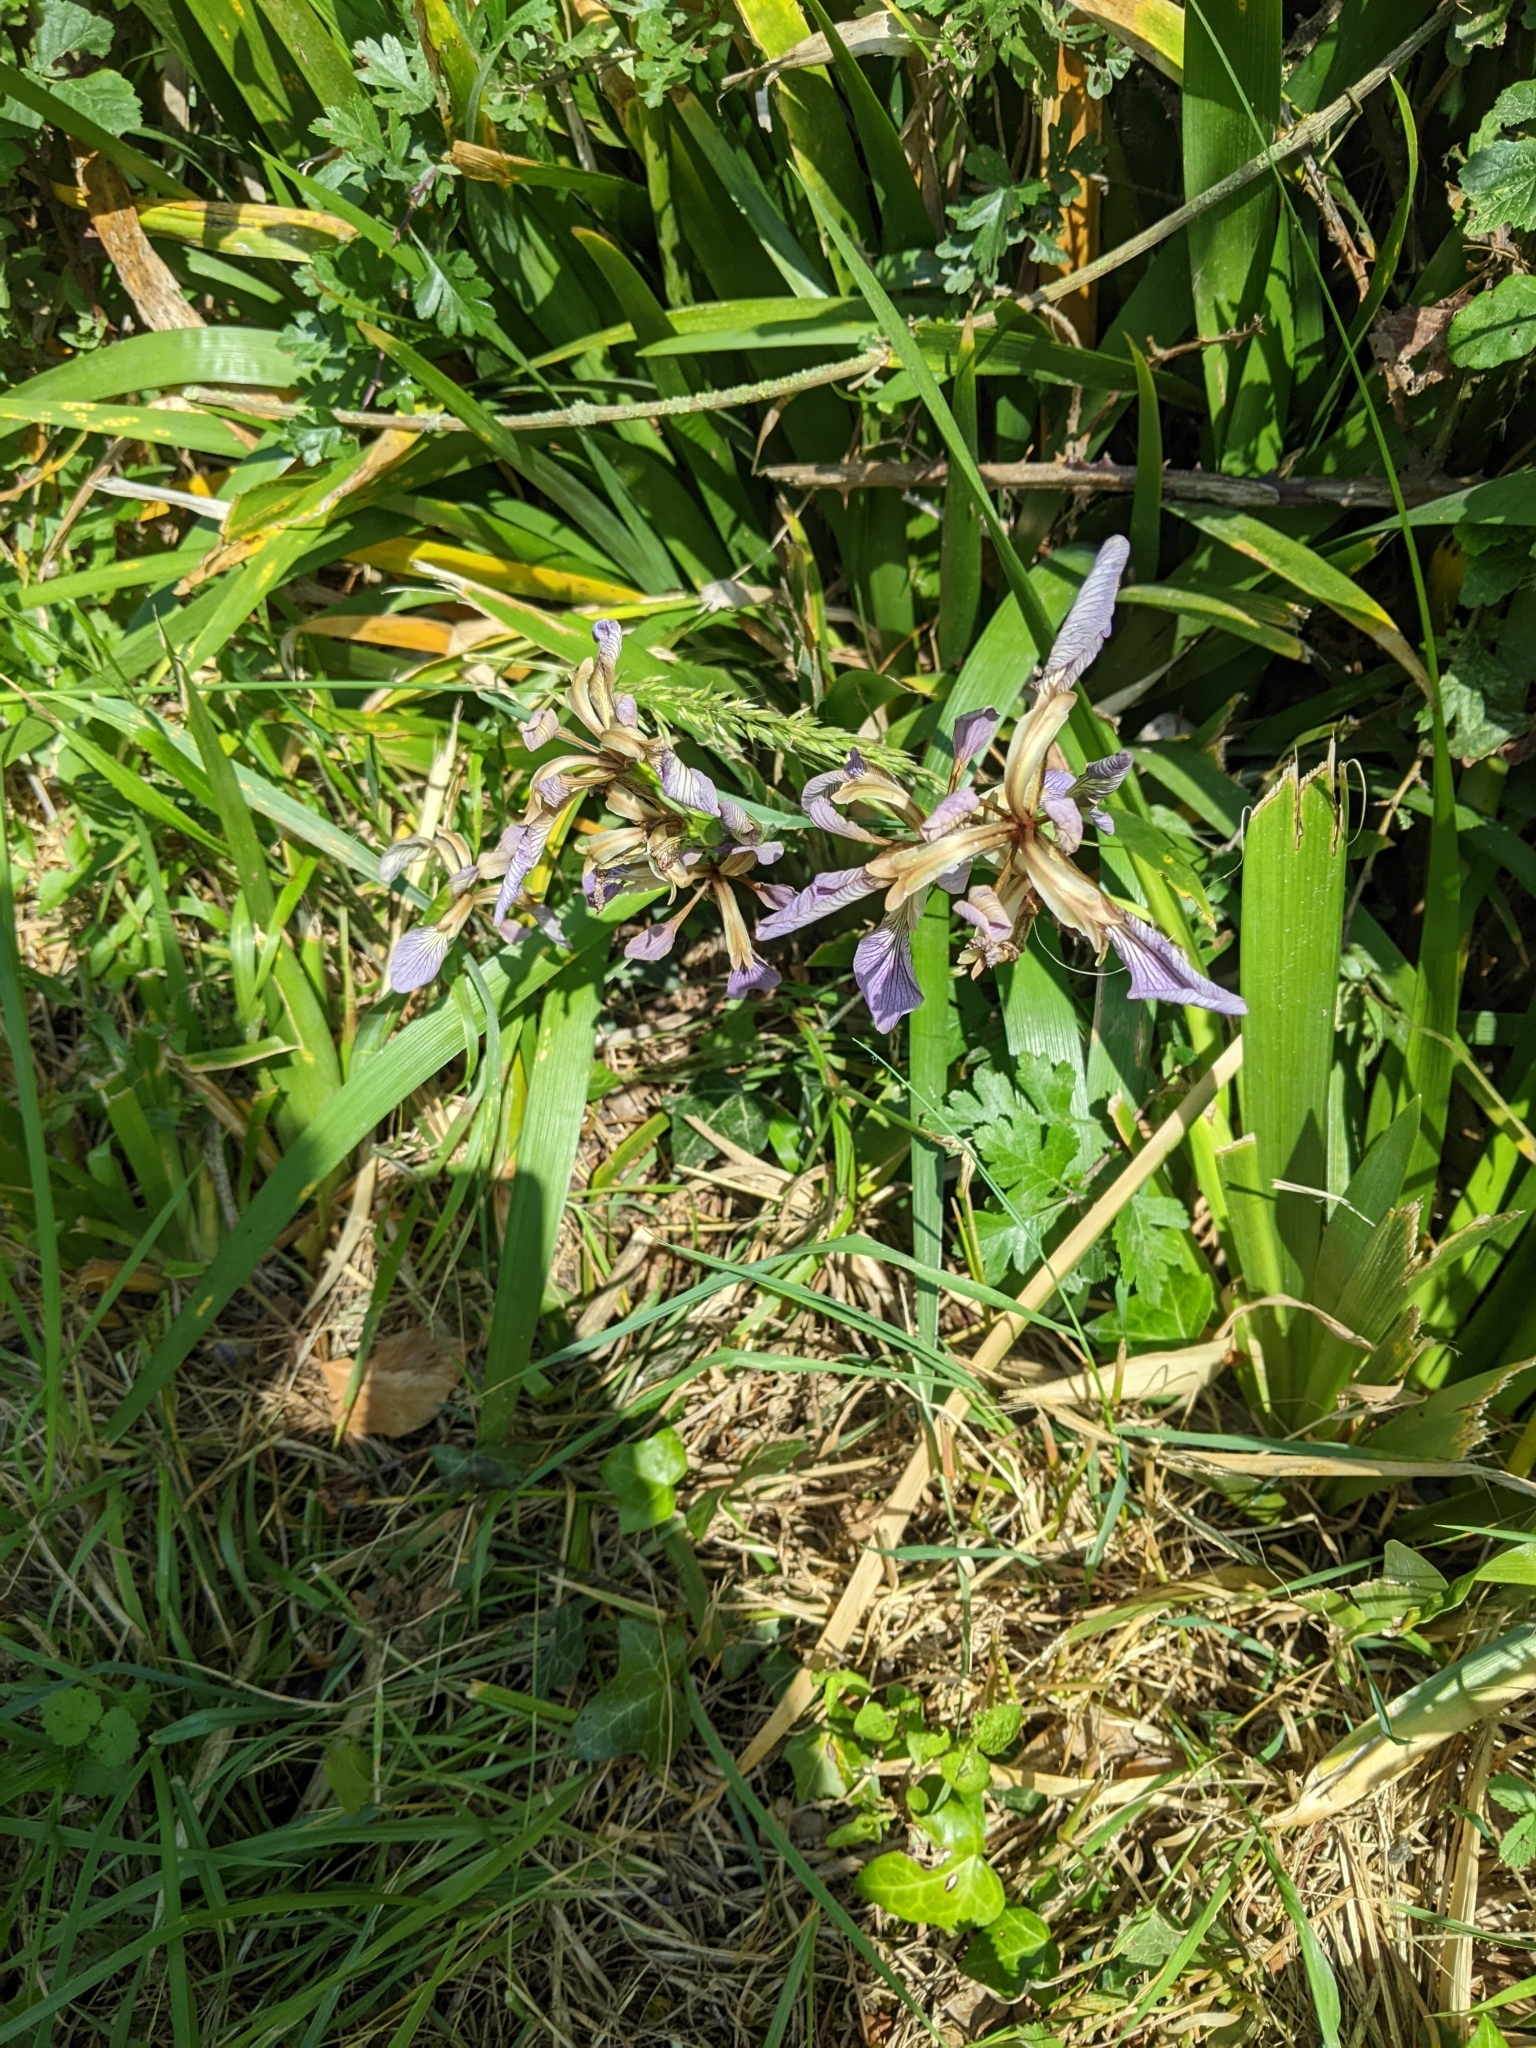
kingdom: Plantae
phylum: Tracheophyta
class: Liliopsida
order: Asparagales
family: Iridaceae
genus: Iris
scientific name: Iris foetidissima
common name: Stinking iris
